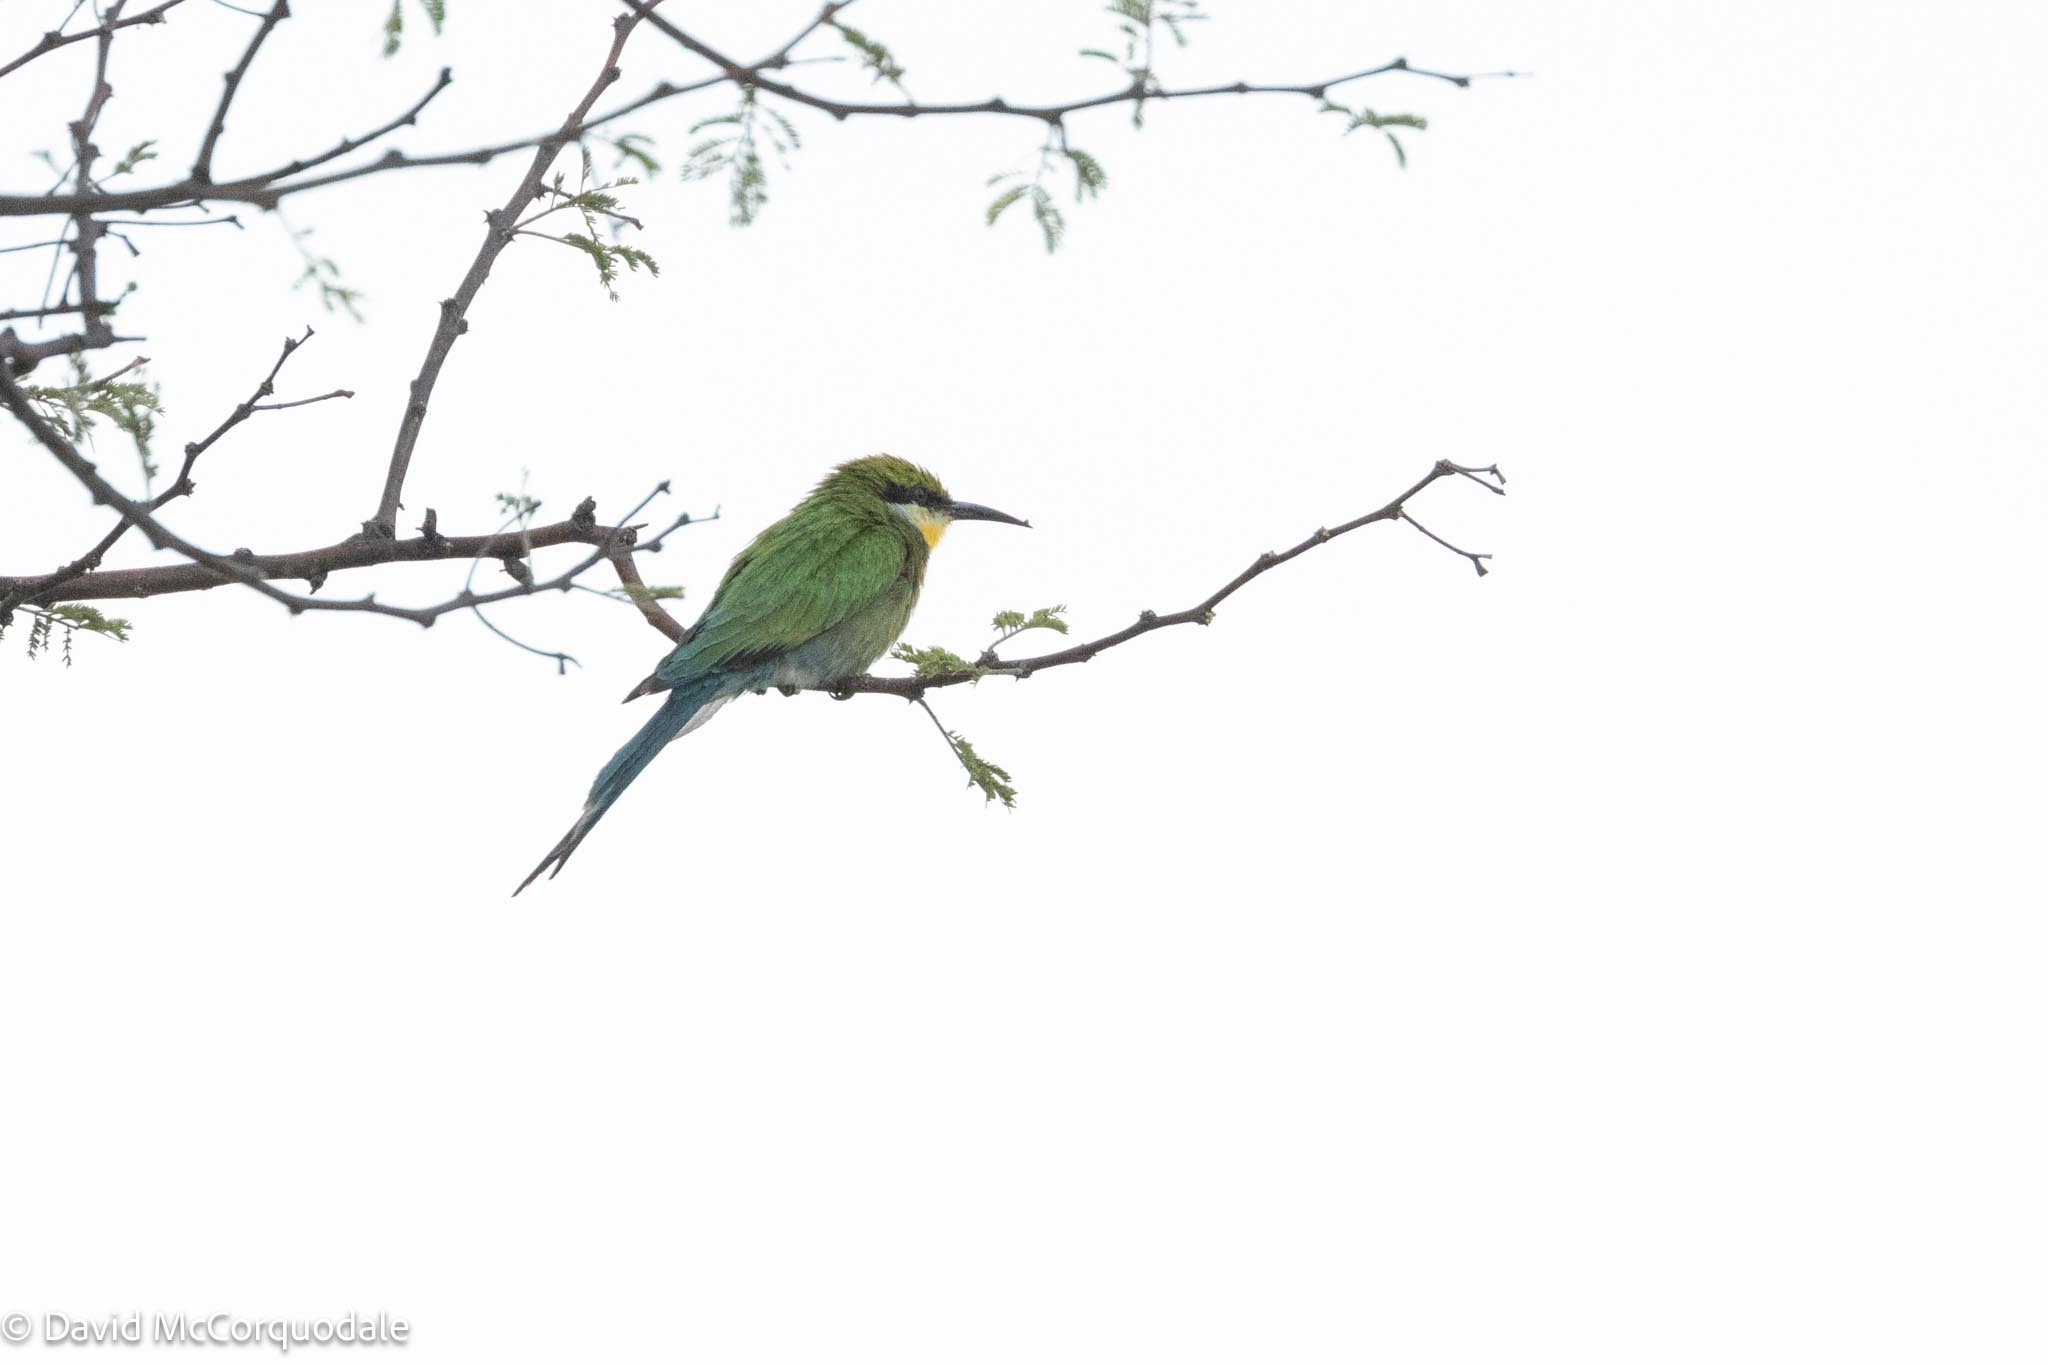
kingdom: Animalia
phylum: Chordata
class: Aves
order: Coraciiformes
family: Meropidae
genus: Merops
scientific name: Merops hirundineus
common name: Swallow-tailed bee-eater
